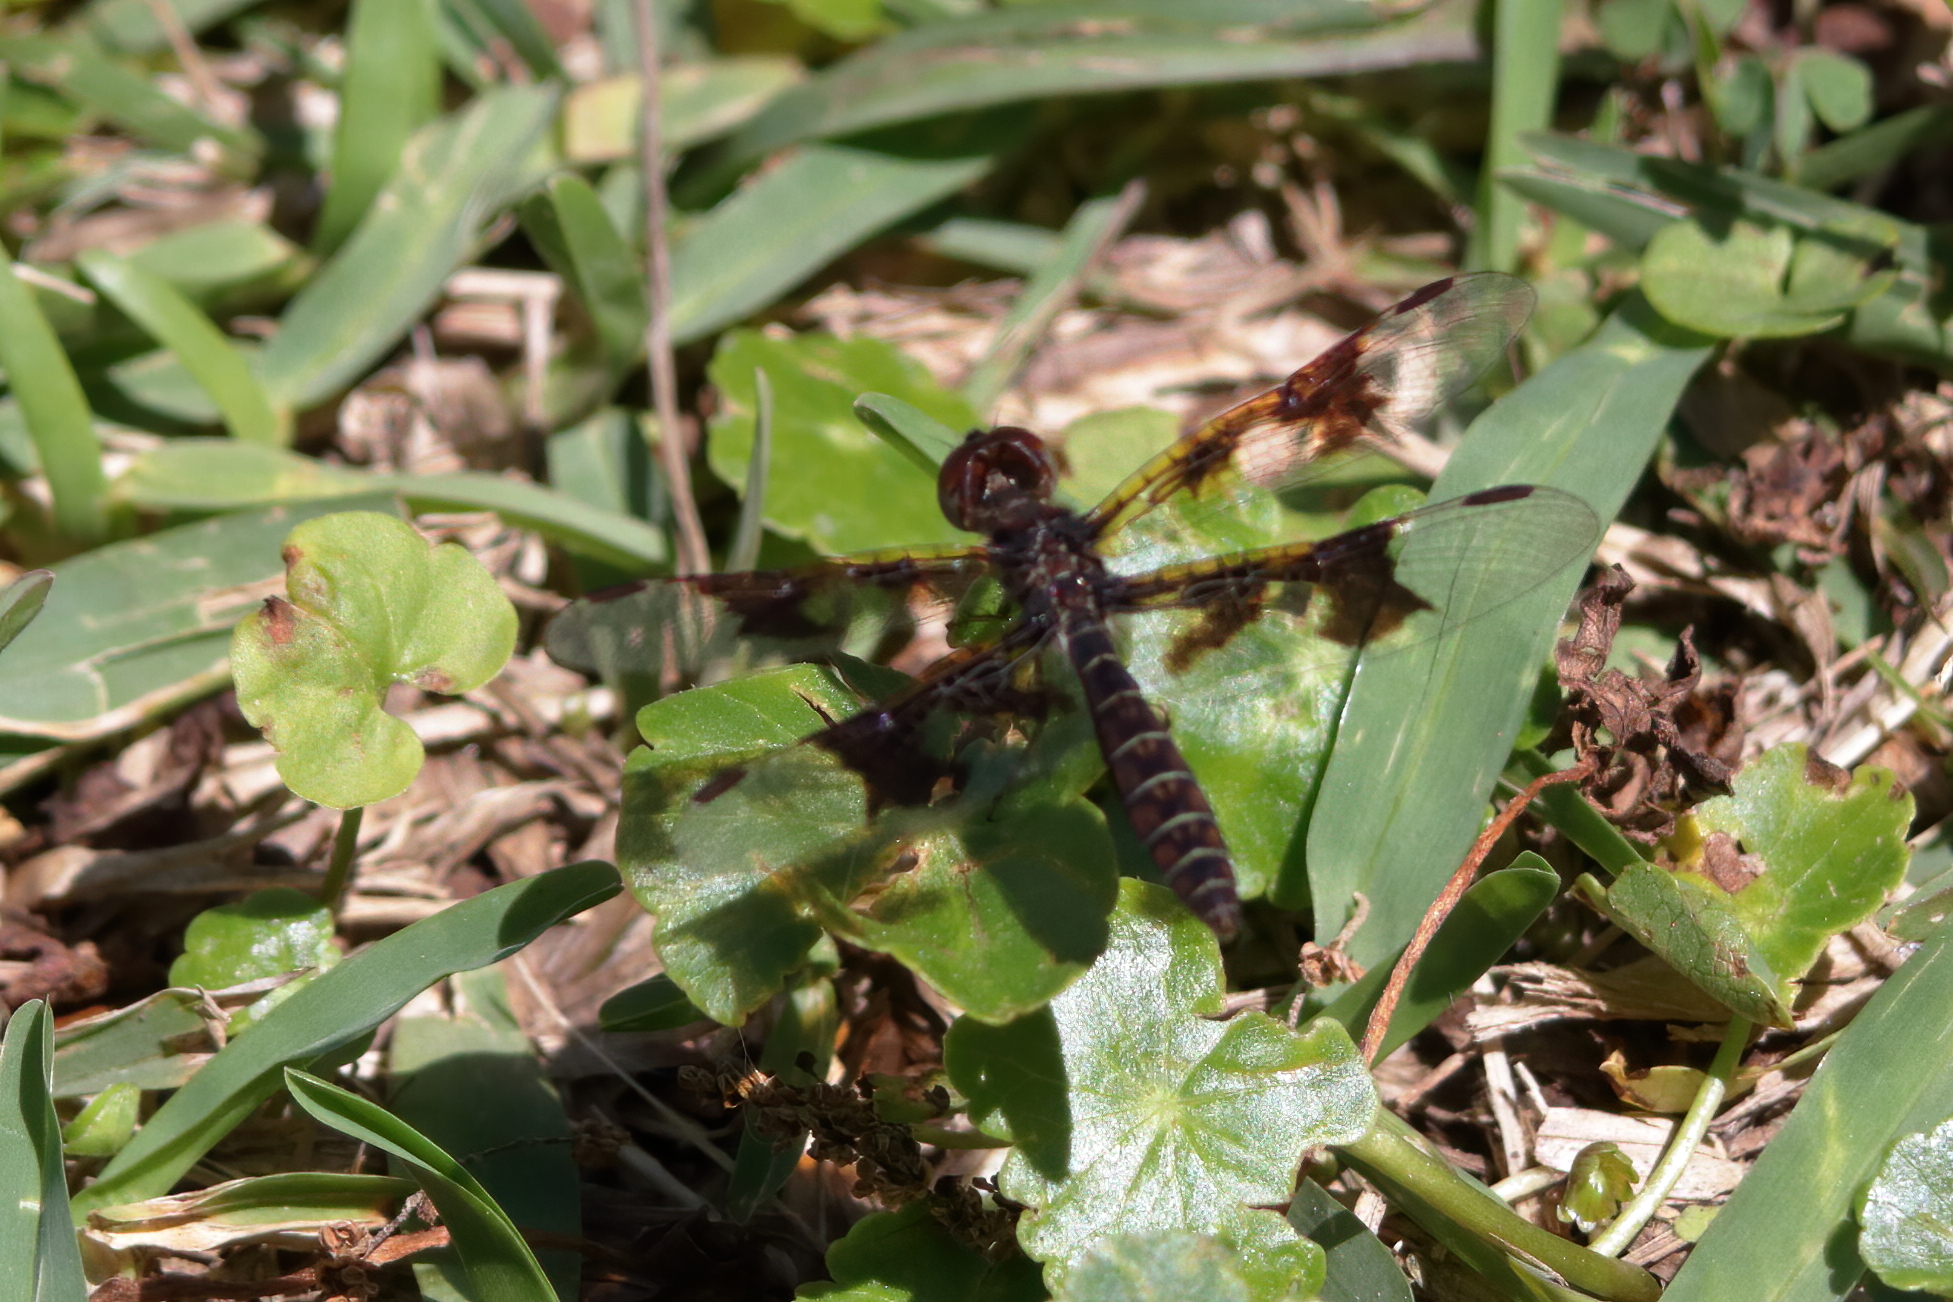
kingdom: Animalia
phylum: Arthropoda
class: Insecta
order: Odonata
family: Libellulidae
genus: Perithemis
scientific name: Perithemis tenera
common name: Eastern amberwing
